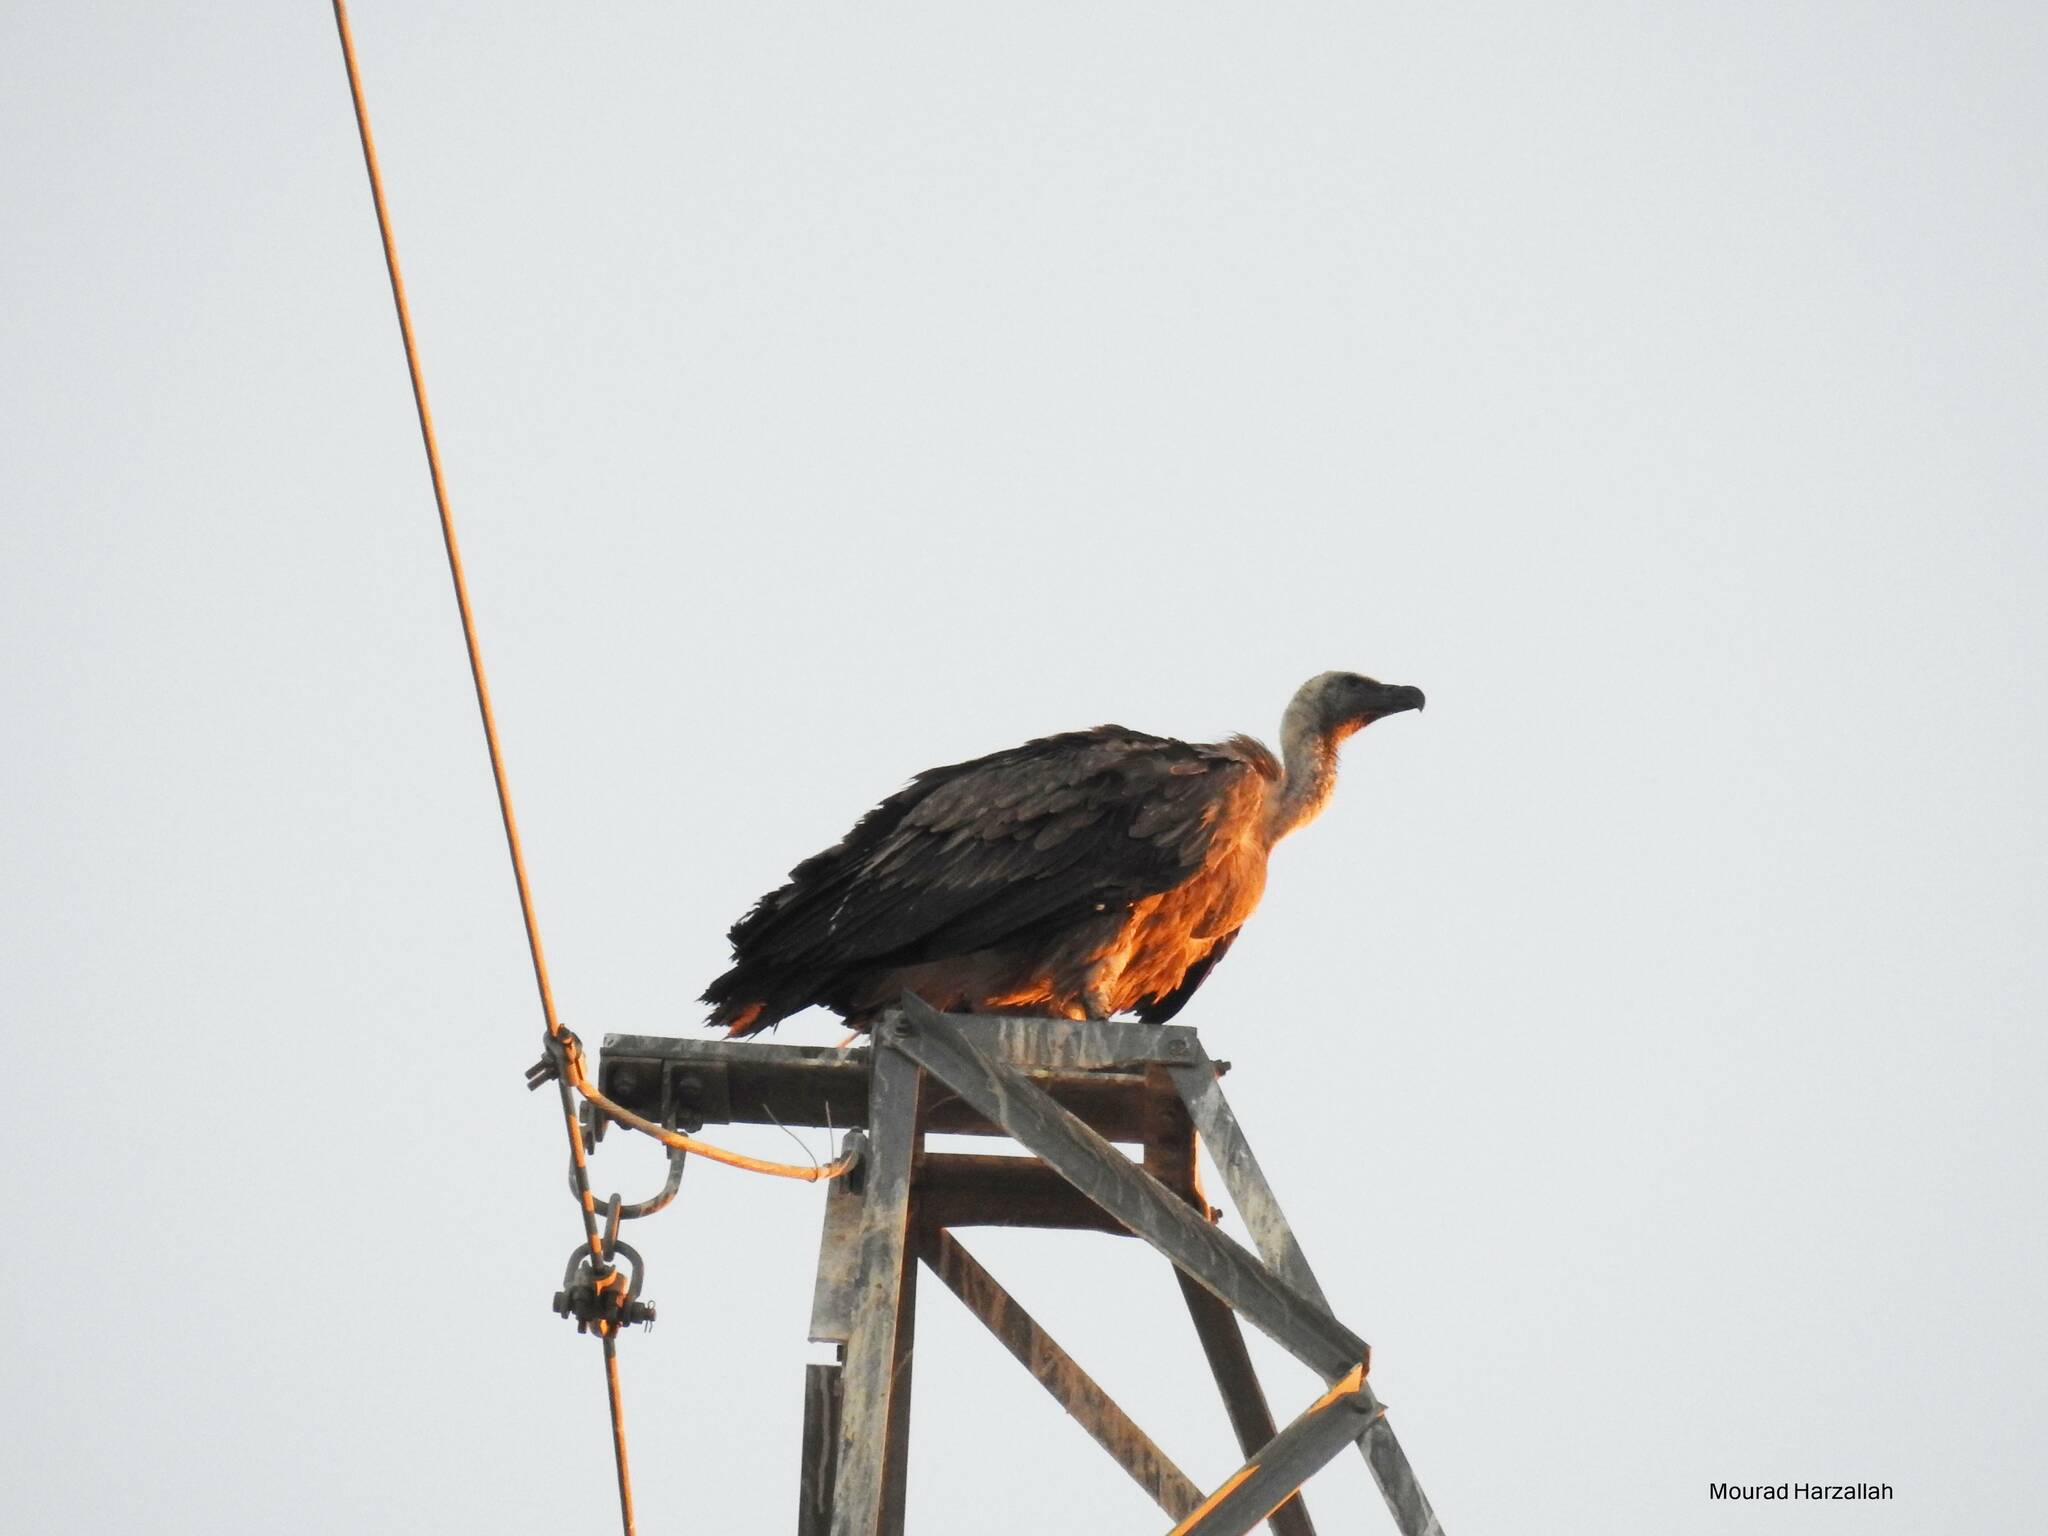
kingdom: Animalia
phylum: Chordata
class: Aves
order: Accipitriformes
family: Accipitridae
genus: Gyps
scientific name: Gyps fulvus
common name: Griffon vulture
